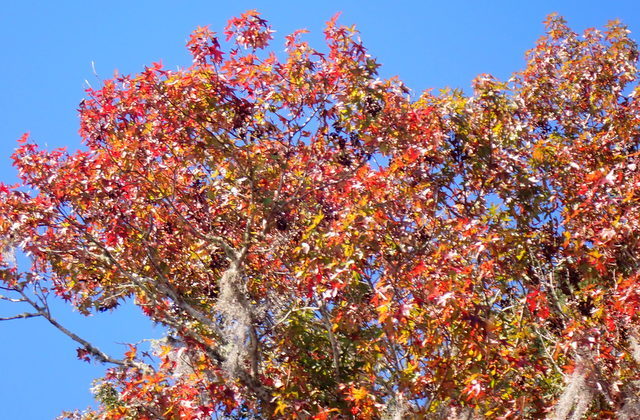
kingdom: Plantae
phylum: Tracheophyta
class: Magnoliopsida
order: Saxifragales
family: Altingiaceae
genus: Liquidambar
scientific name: Liquidambar styraciflua
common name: Sweet gum
